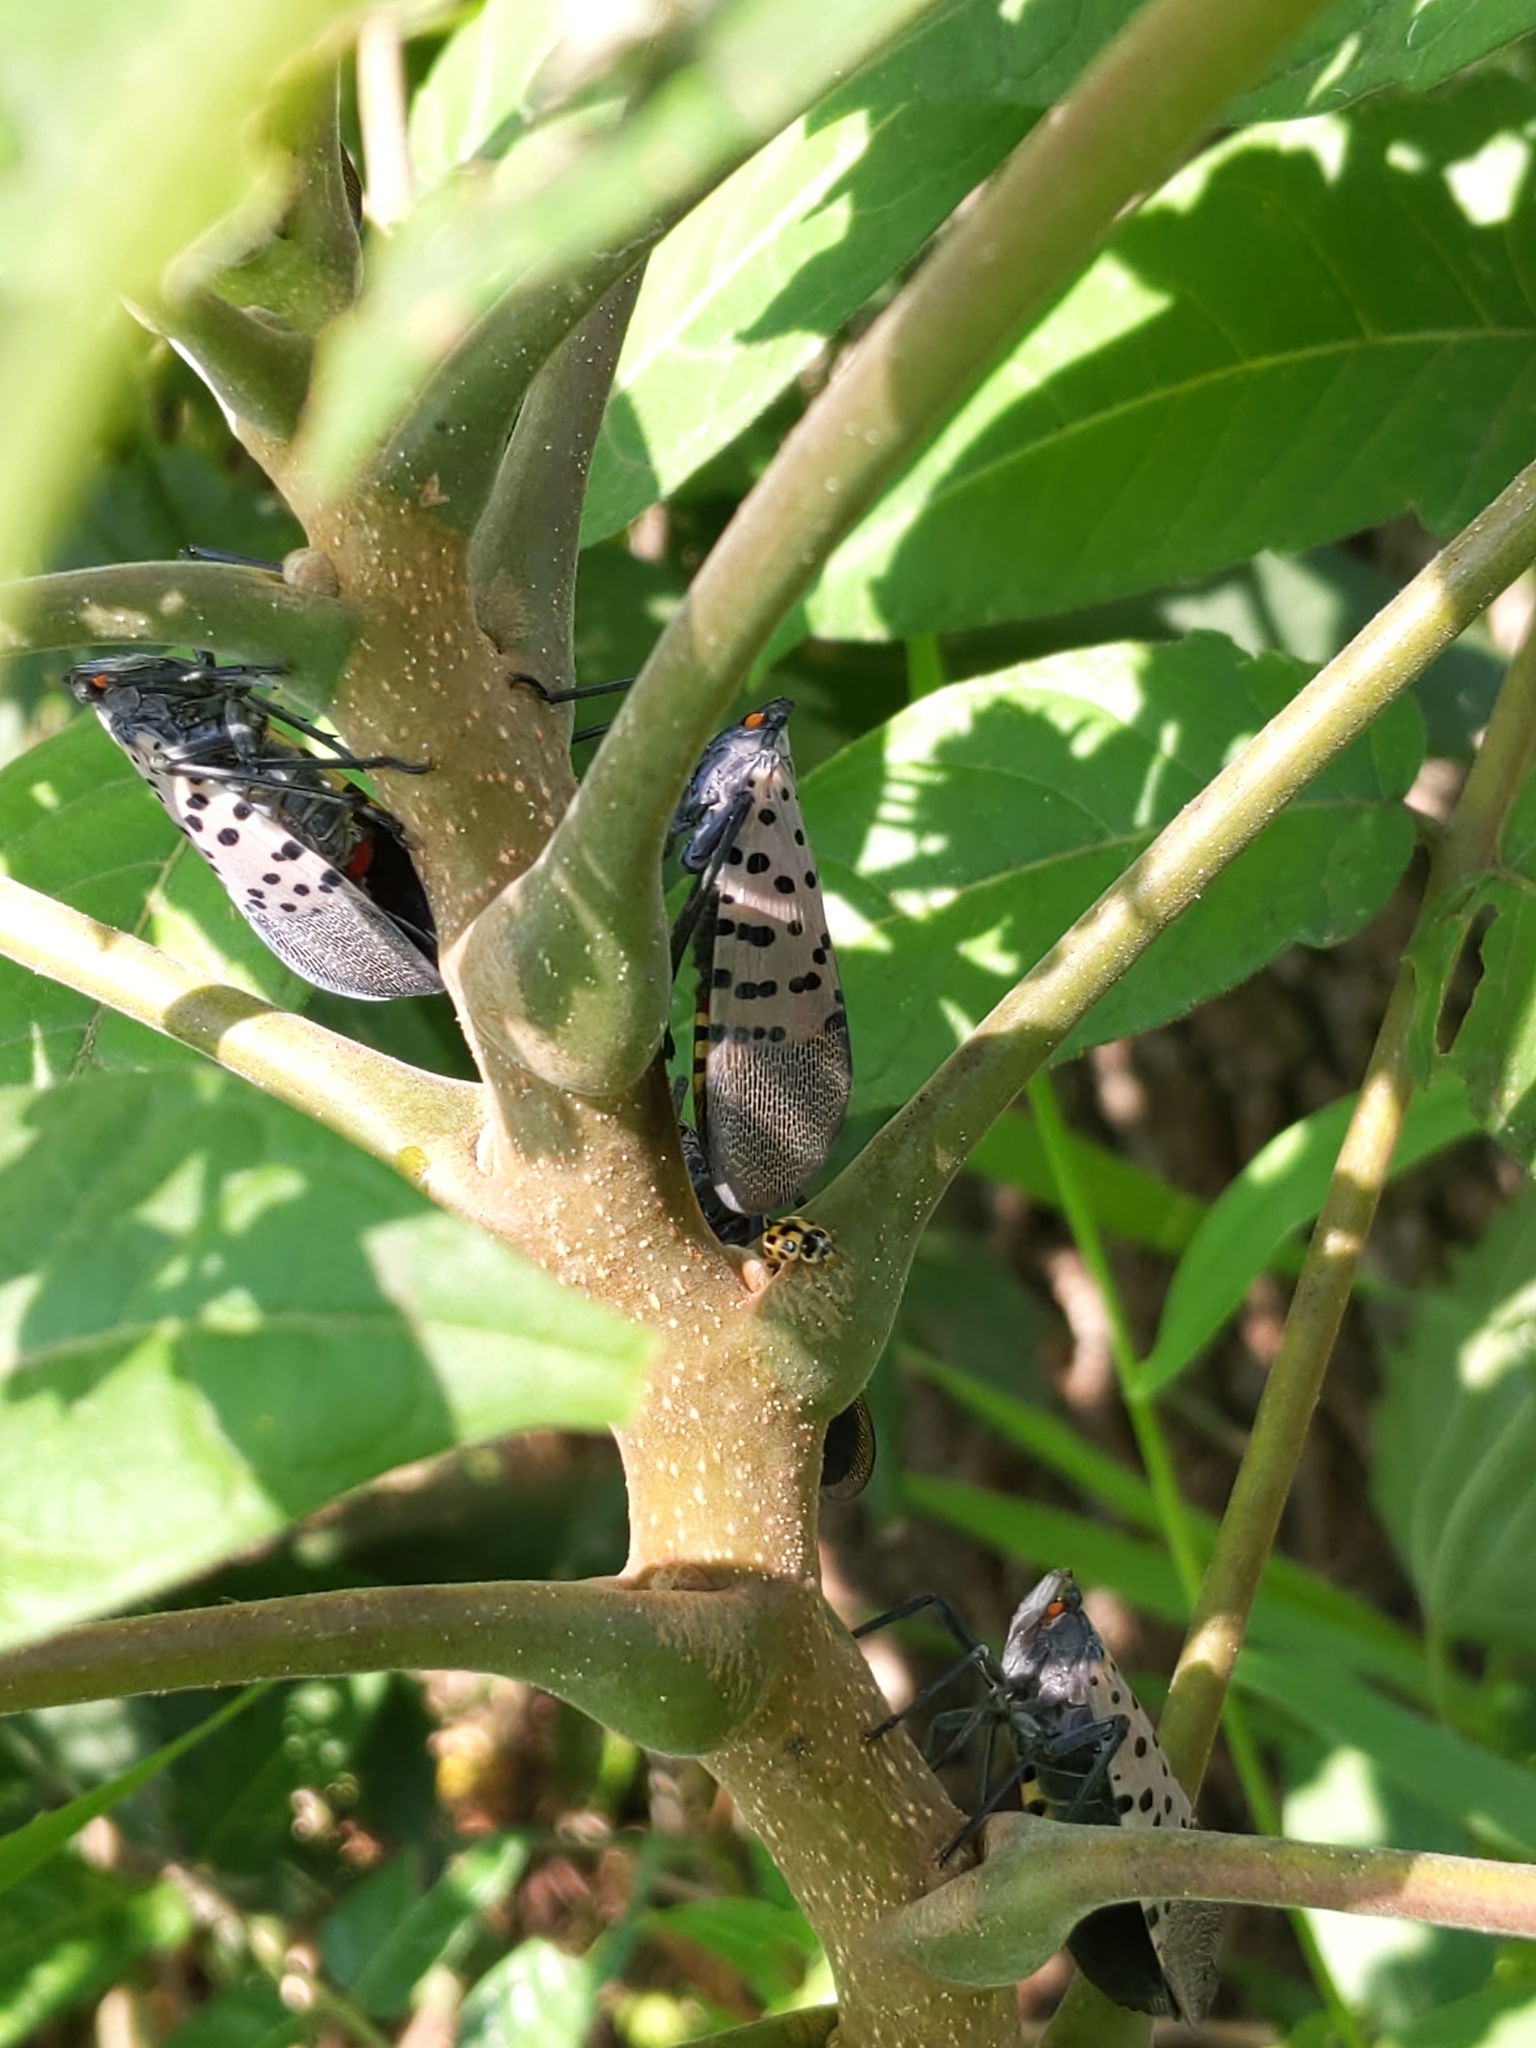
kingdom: Animalia
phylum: Arthropoda
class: Insecta
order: Hemiptera
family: Fulgoridae
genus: Lycorma
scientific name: Lycorma delicatula
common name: Spotted lanternfly
